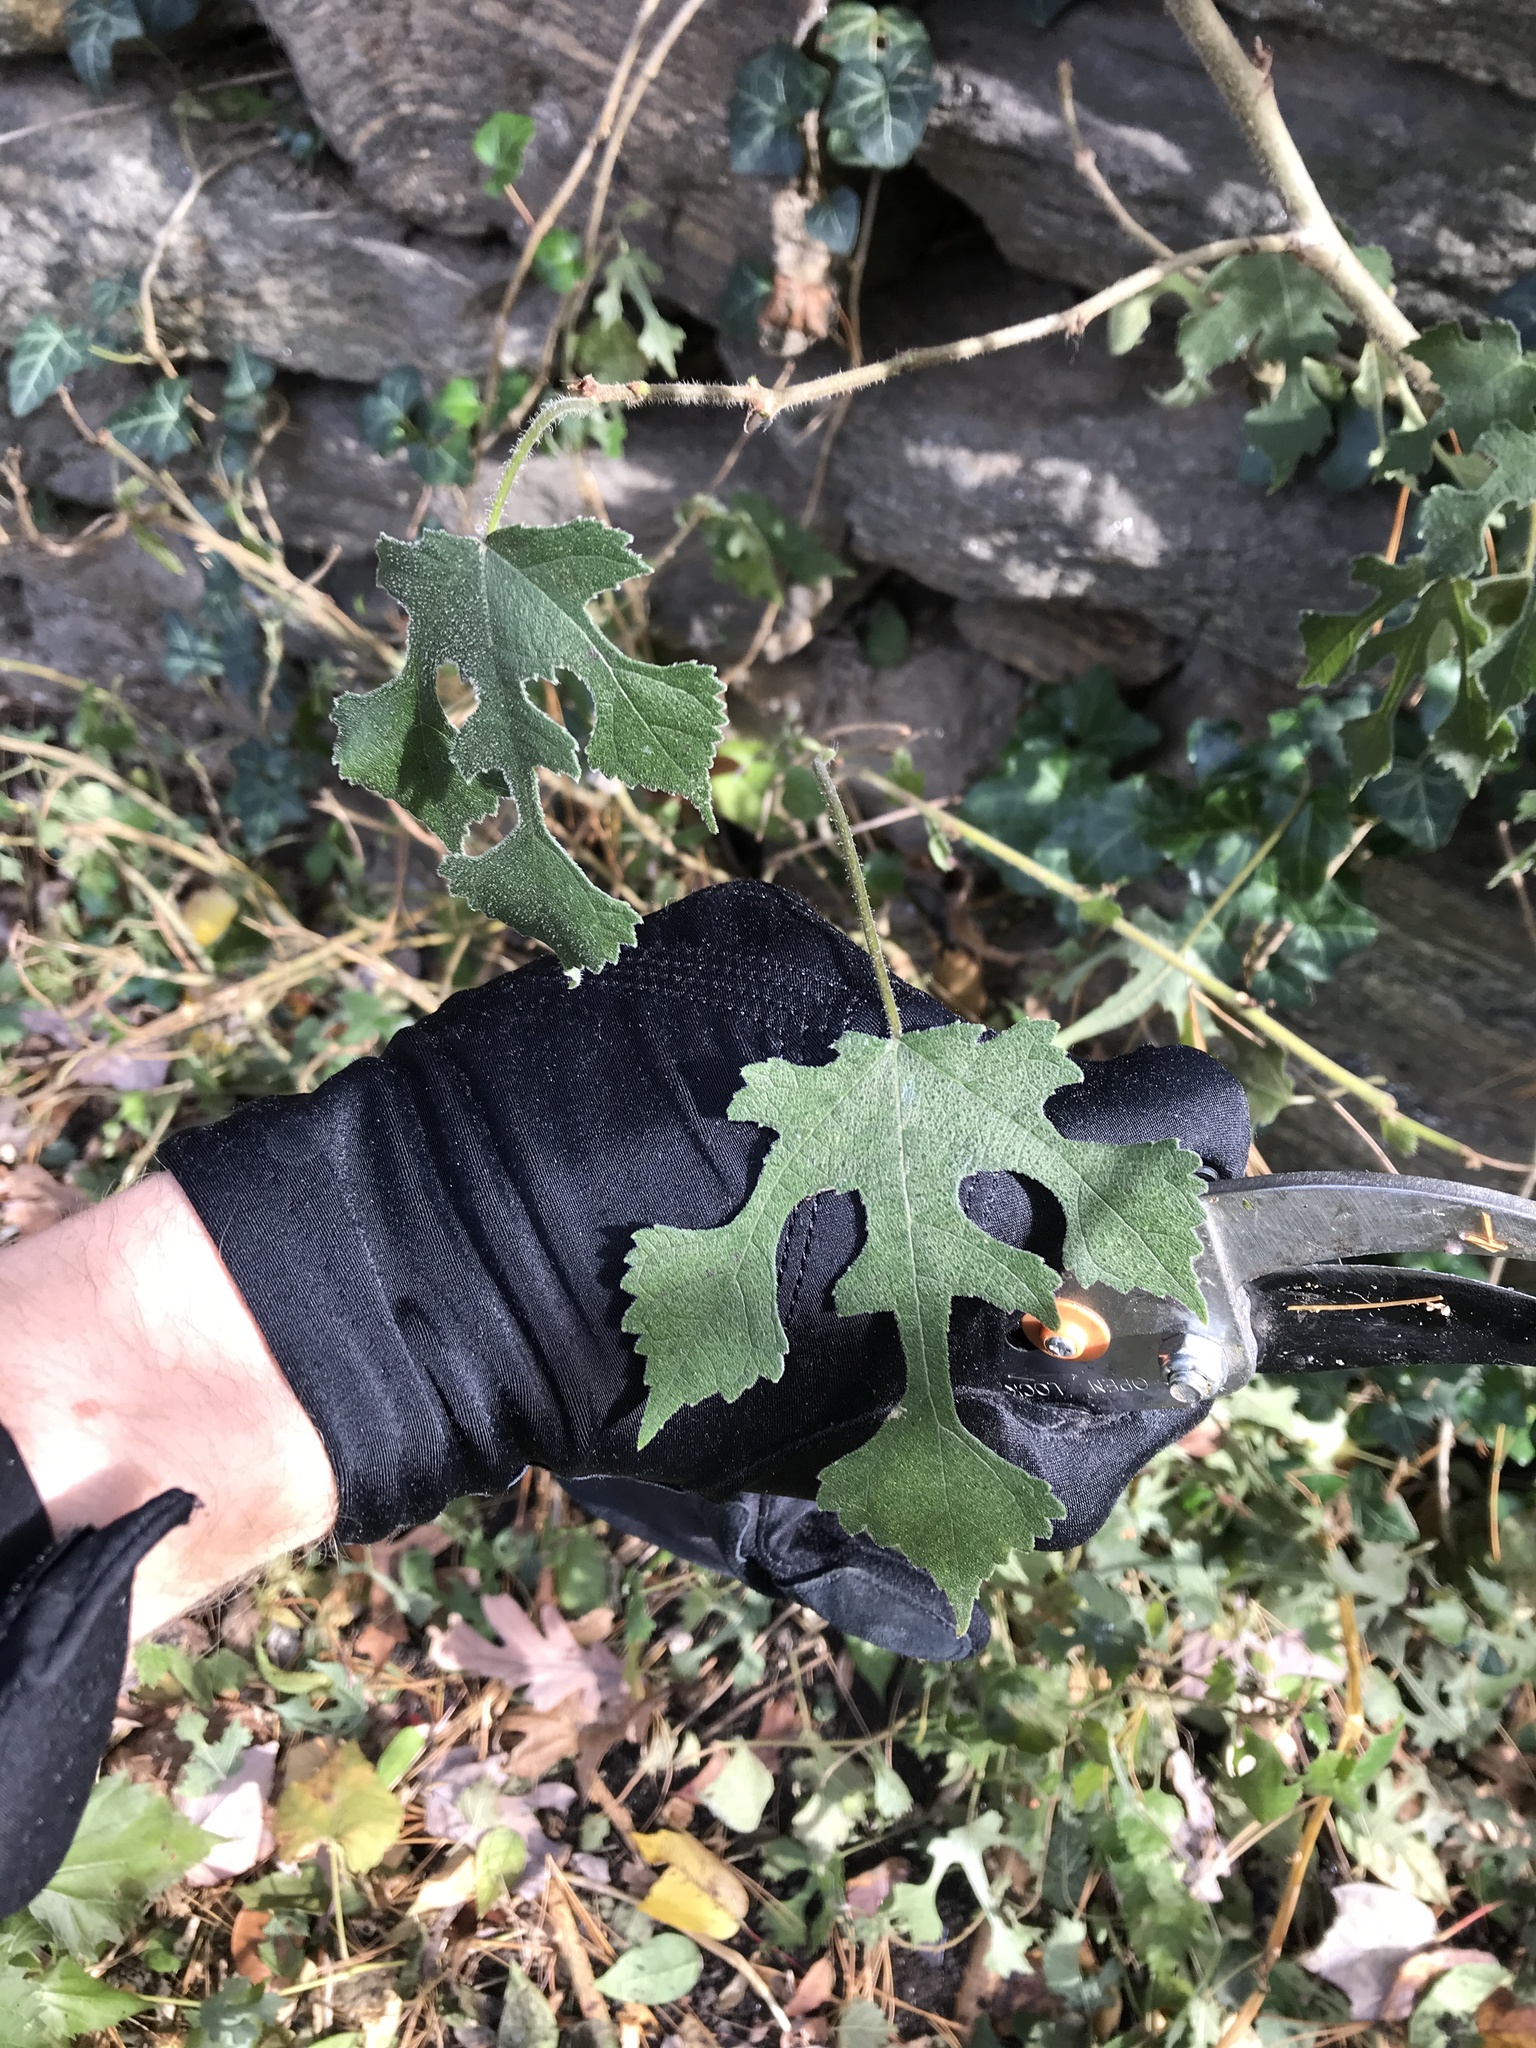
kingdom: Plantae
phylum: Tracheophyta
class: Magnoliopsida
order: Rosales
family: Moraceae
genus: Broussonetia
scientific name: Broussonetia papyrifera
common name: Paper mulberry
